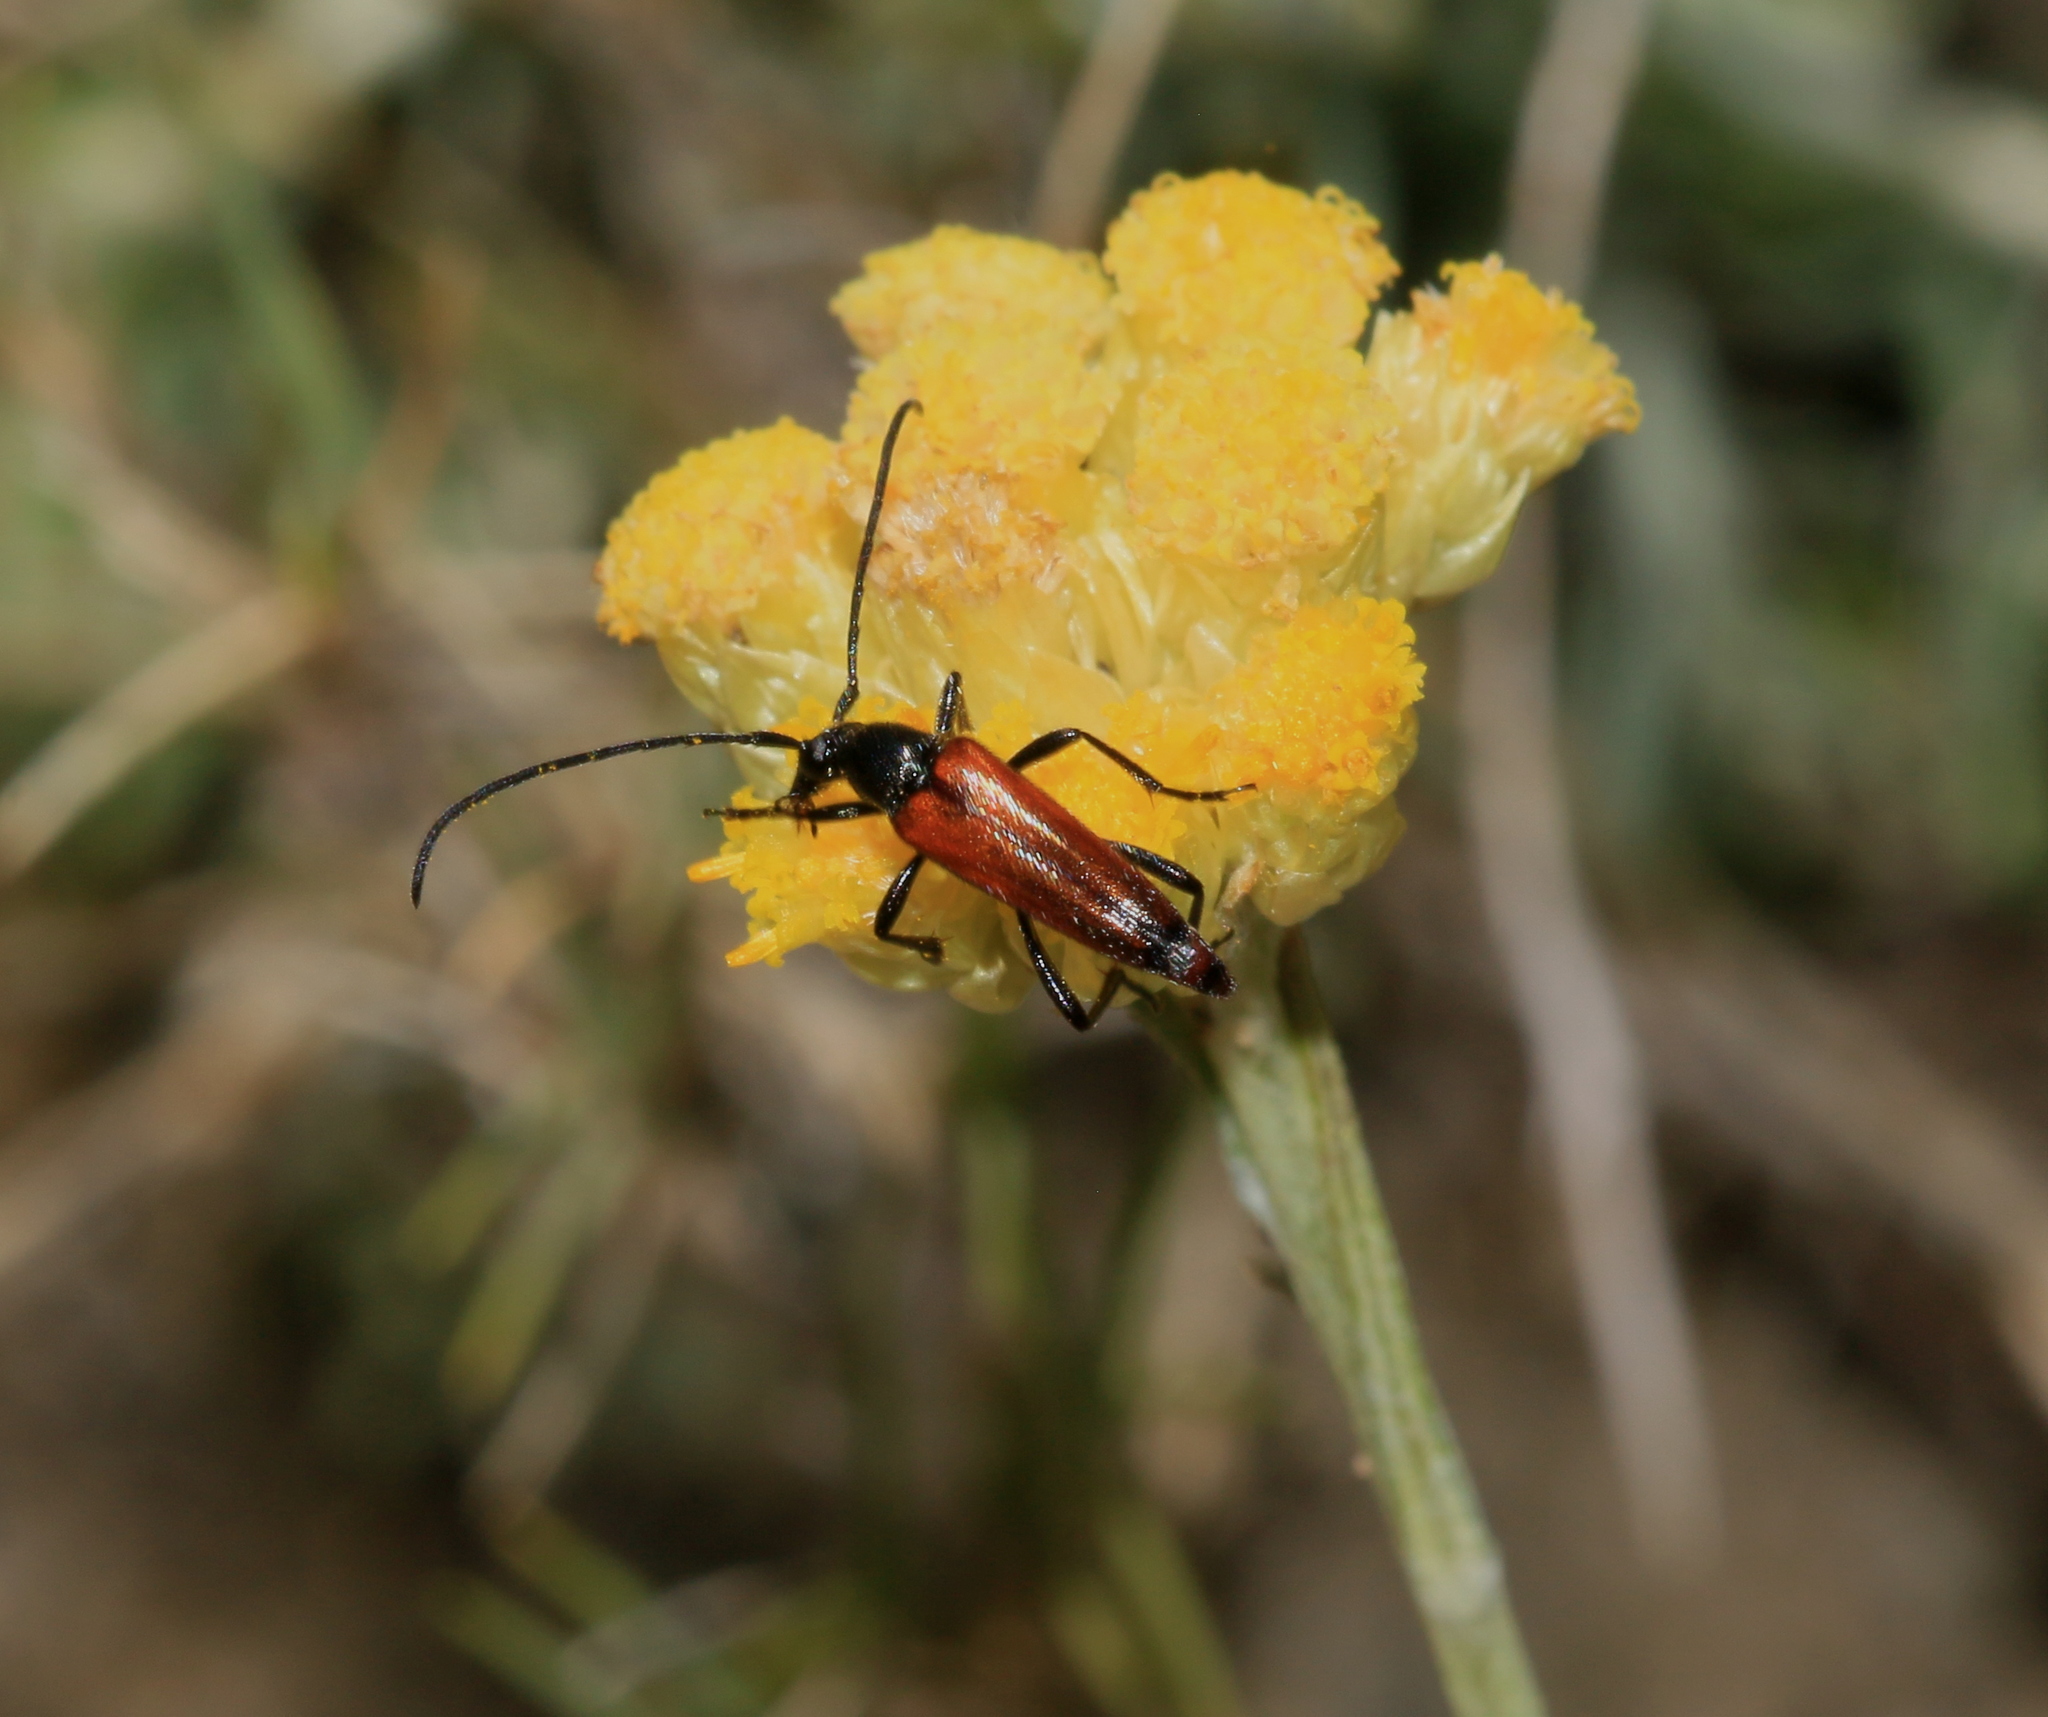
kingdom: Animalia
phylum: Arthropoda
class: Insecta
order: Coleoptera
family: Cerambycidae
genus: Stenurella
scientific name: Stenurella bifasciata
